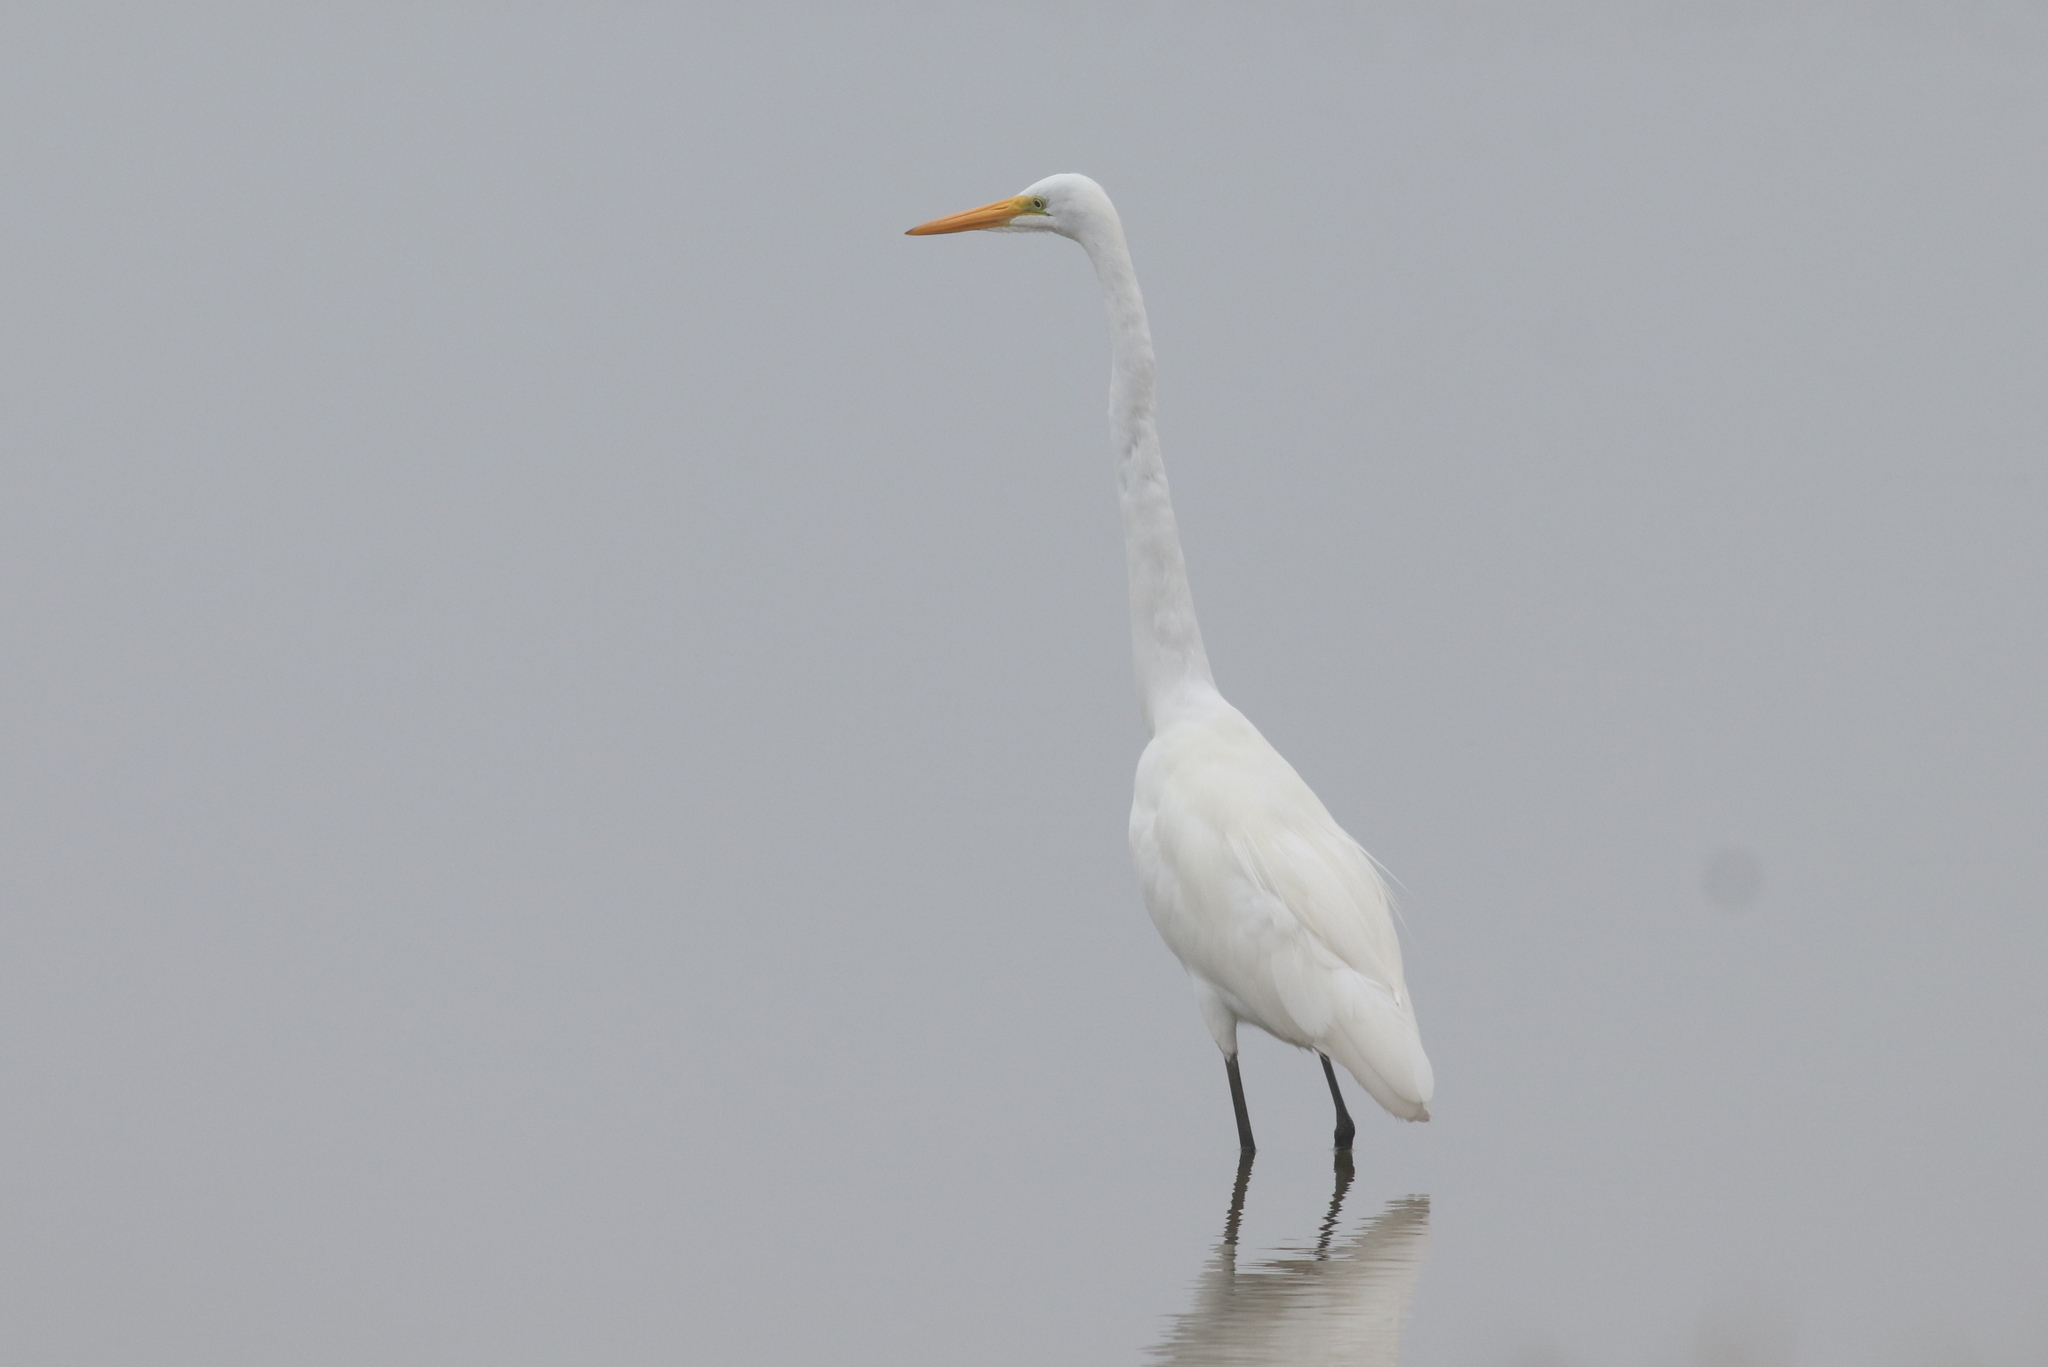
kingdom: Animalia
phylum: Chordata
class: Aves
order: Pelecaniformes
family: Ardeidae
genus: Ardea
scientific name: Ardea alba
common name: Great egret
